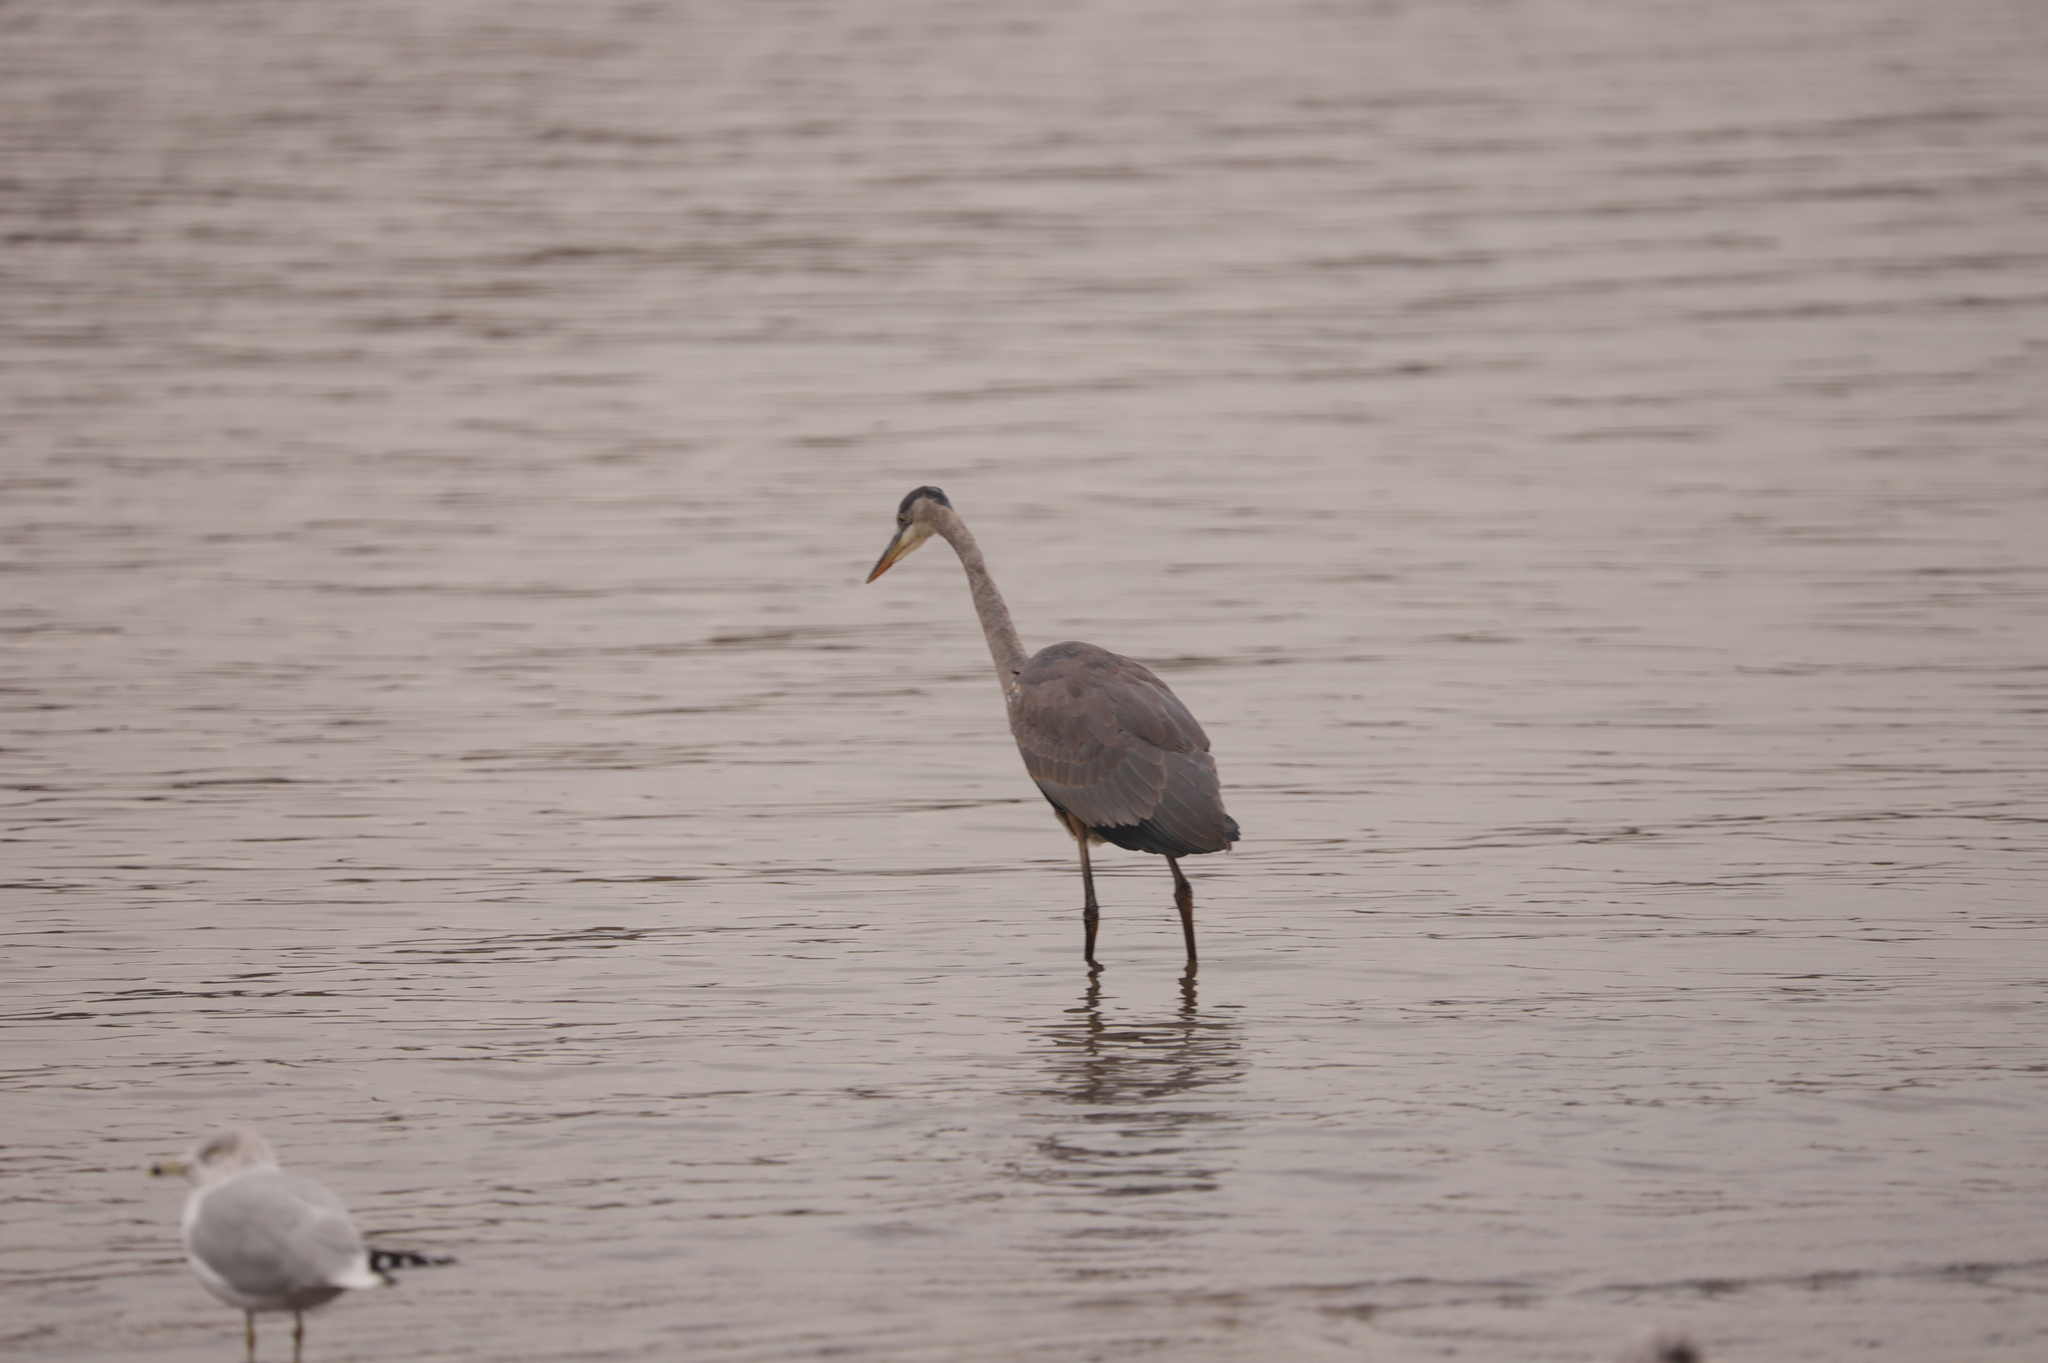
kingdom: Animalia
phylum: Chordata
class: Aves
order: Pelecaniformes
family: Ardeidae
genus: Ardea
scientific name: Ardea herodias
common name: Great blue heron
